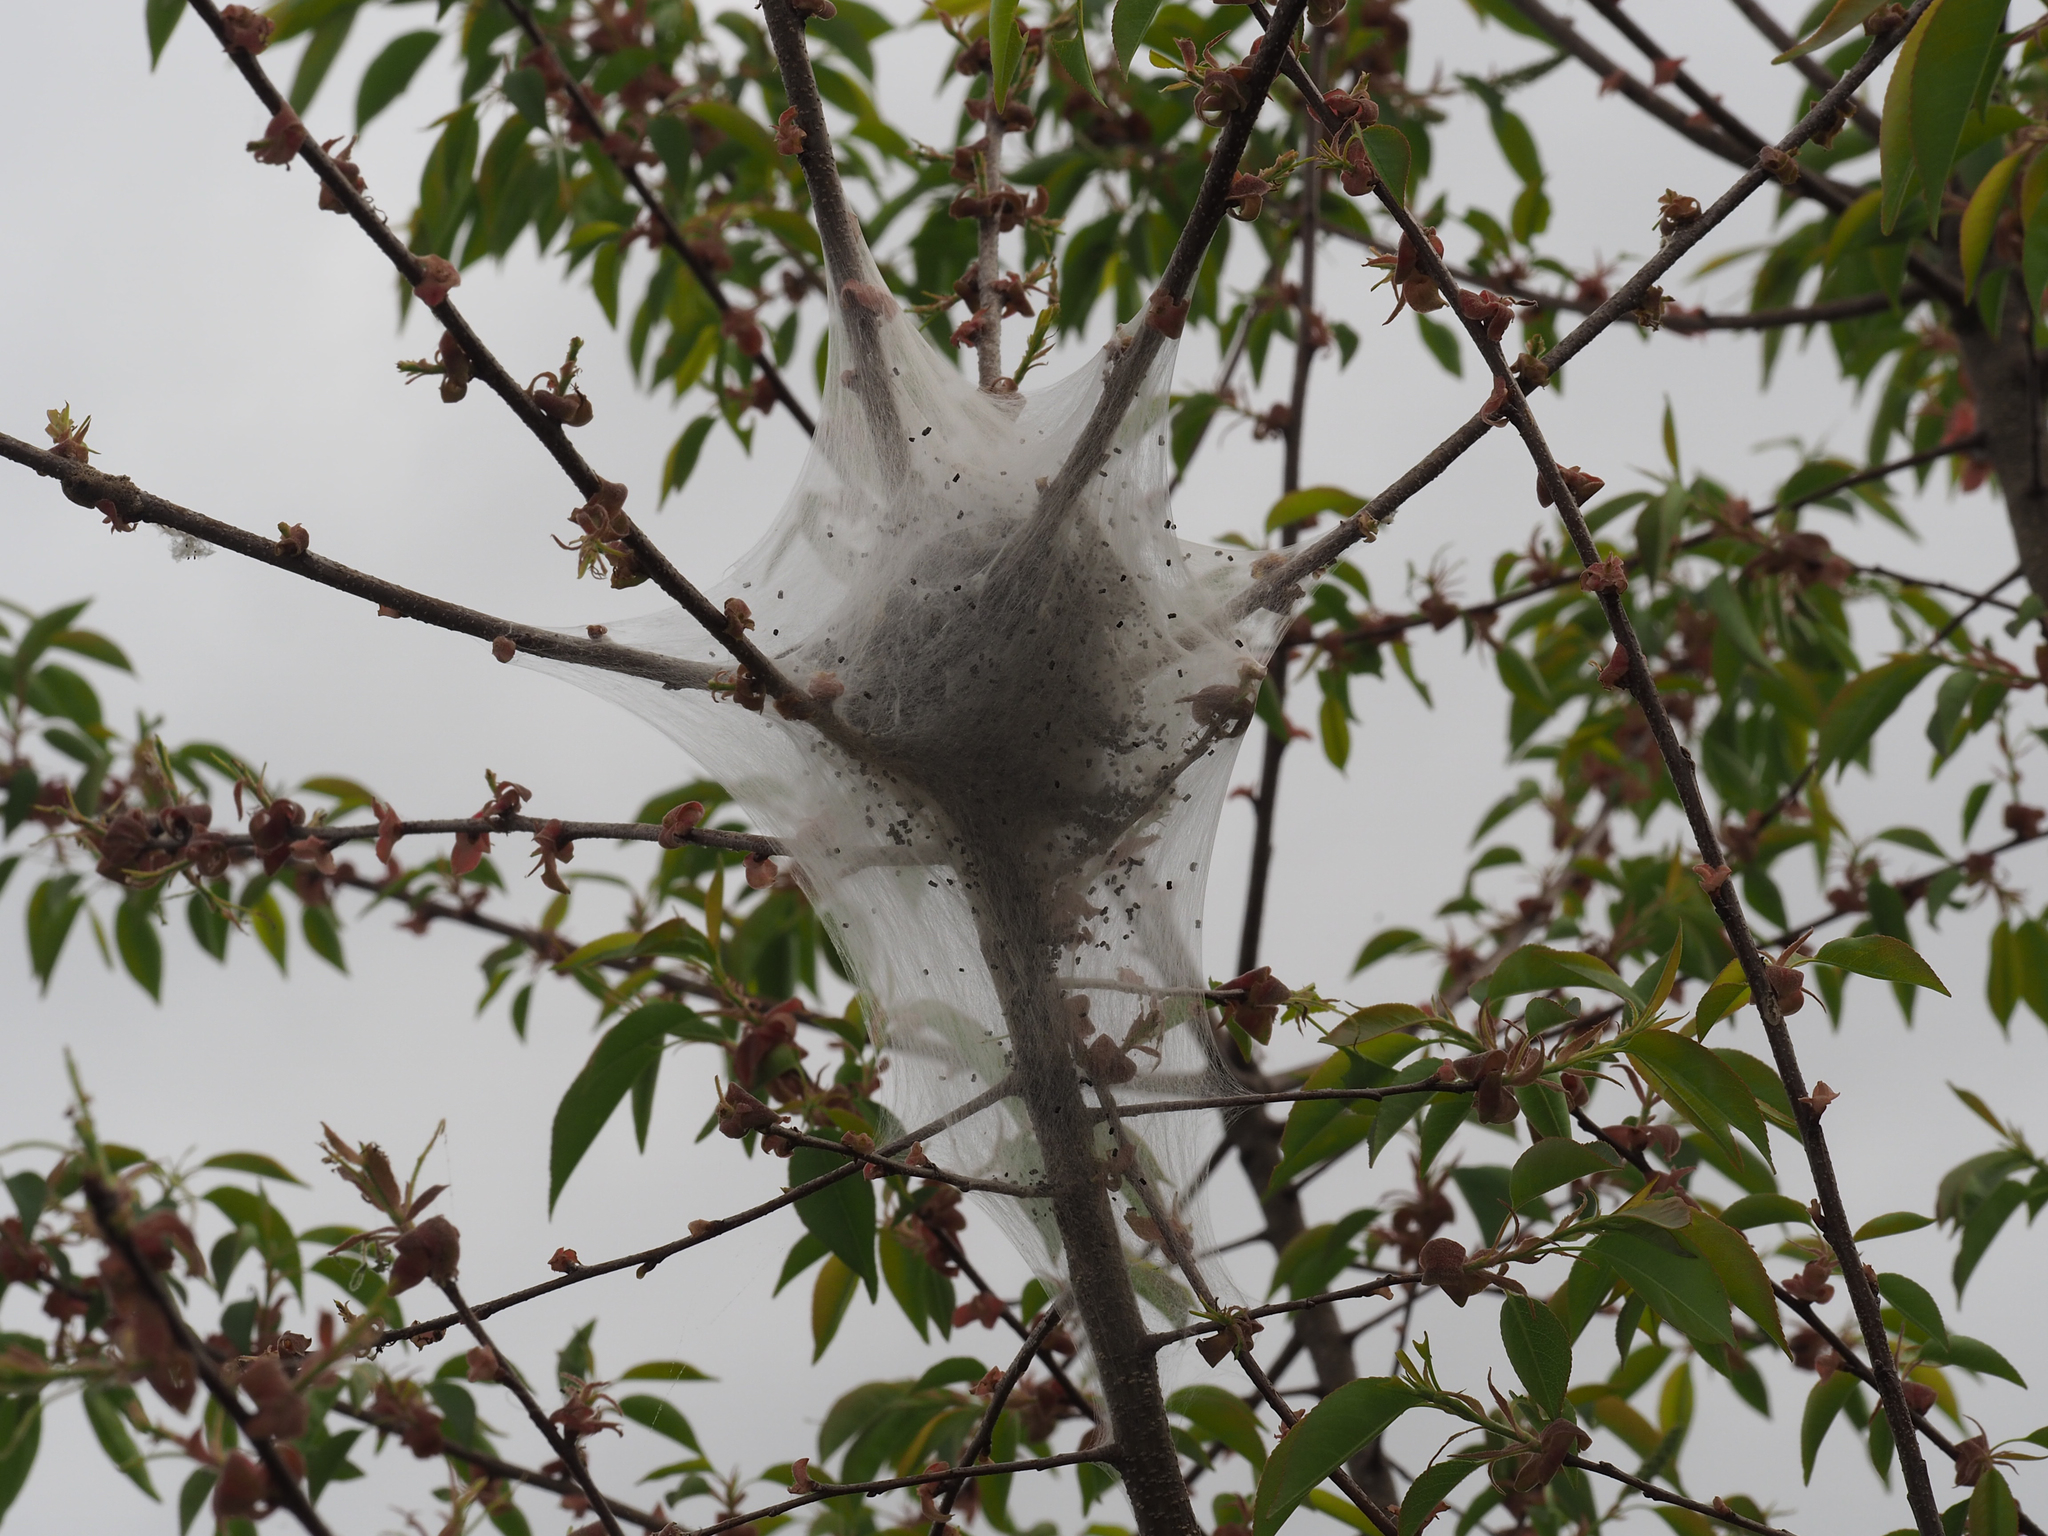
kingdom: Animalia
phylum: Arthropoda
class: Insecta
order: Lepidoptera
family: Lasiocampidae
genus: Malacosoma
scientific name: Malacosoma americana
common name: Eastern tent caterpillar moth
